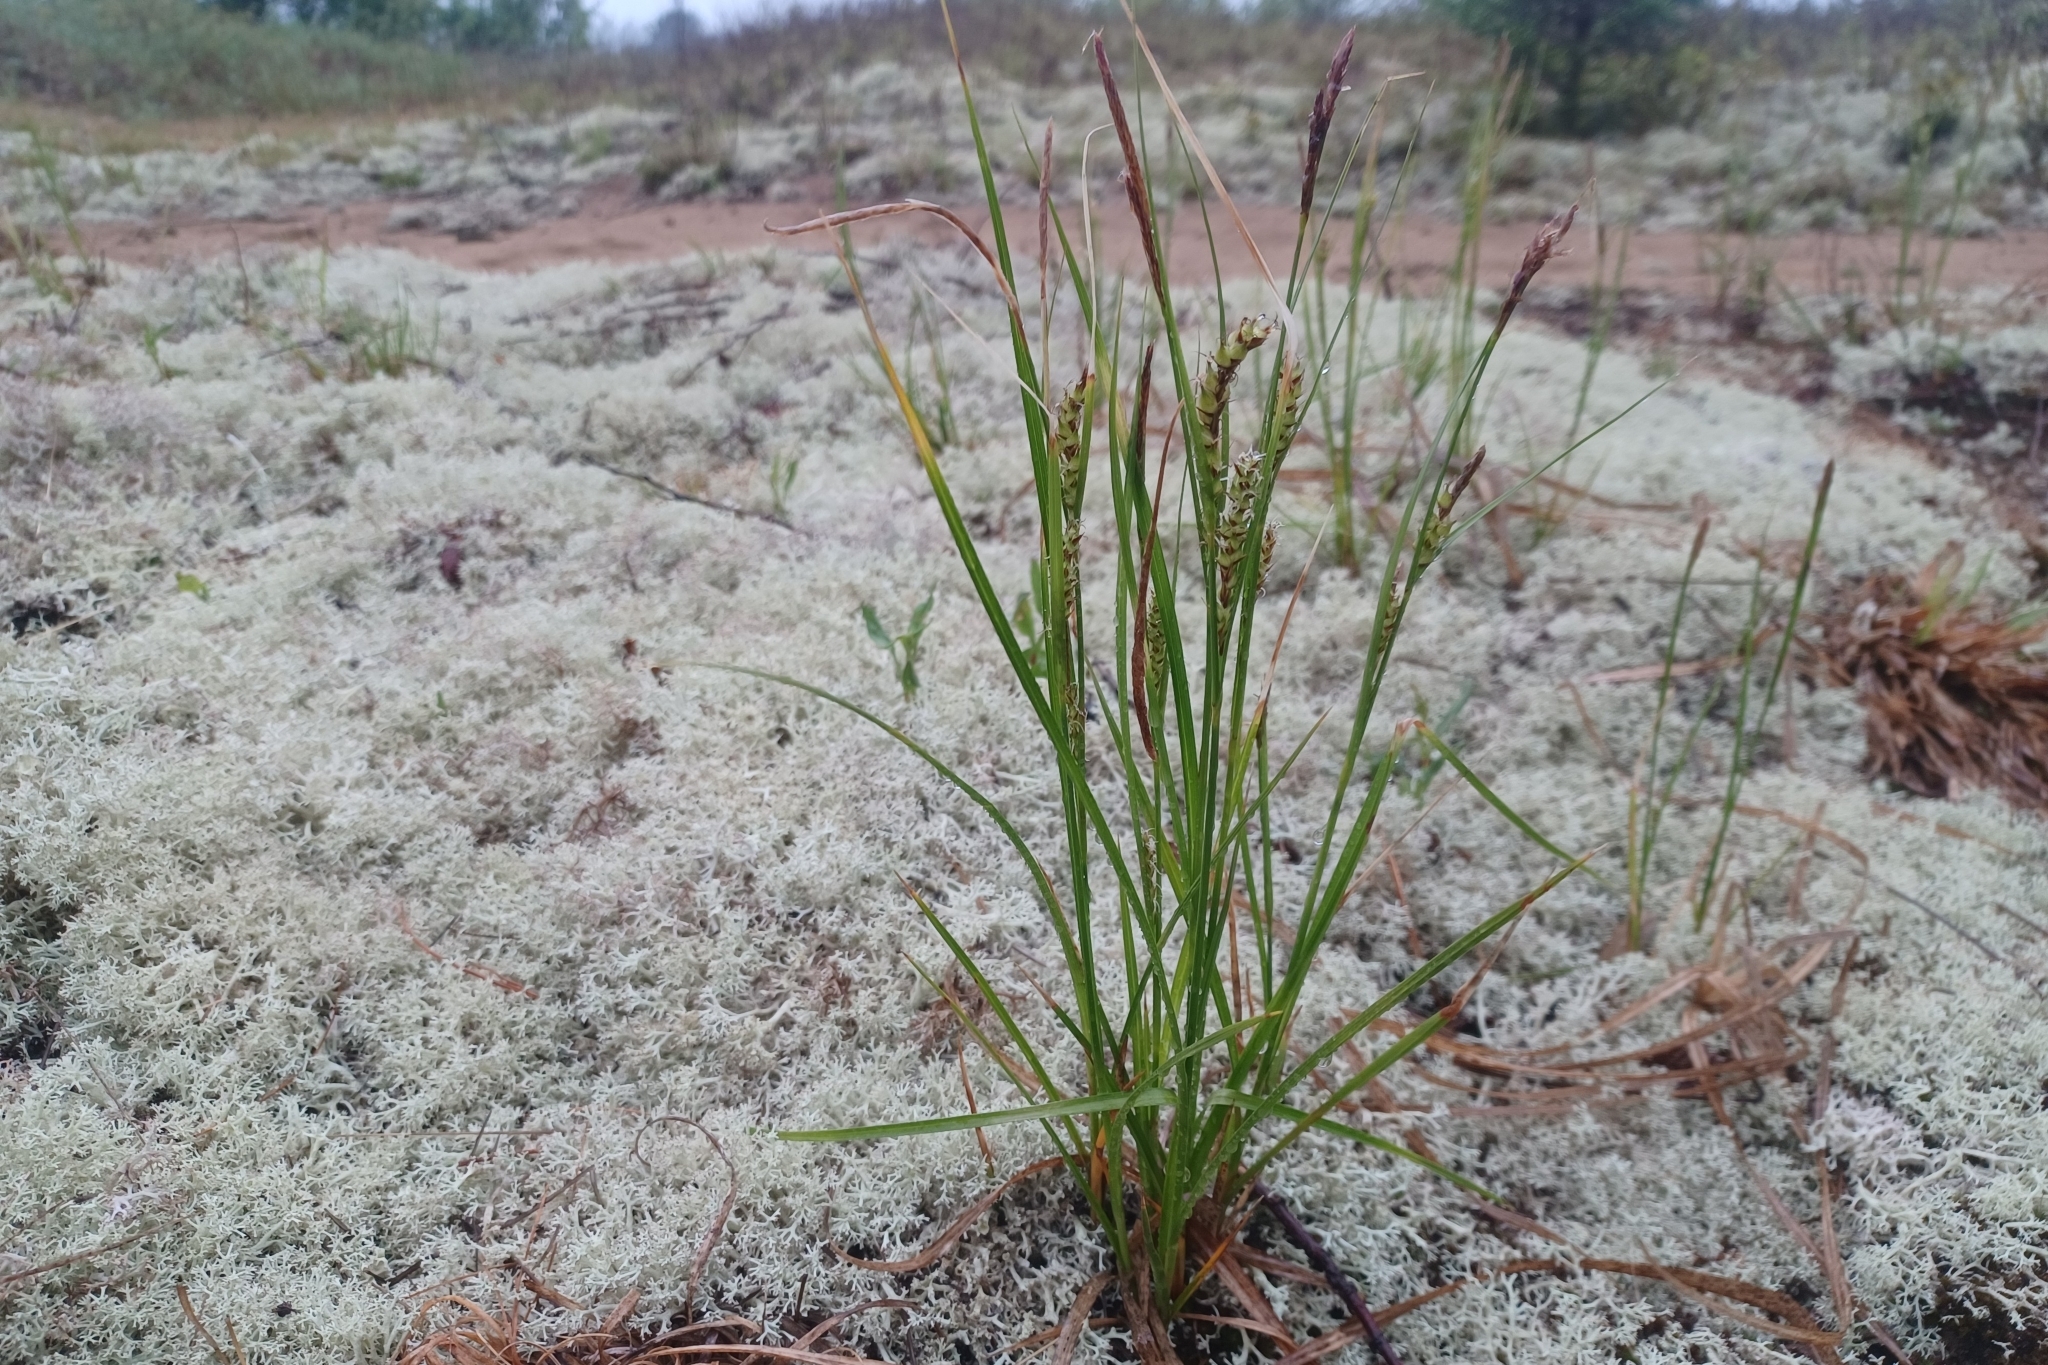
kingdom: Plantae
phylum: Tracheophyta
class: Liliopsida
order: Poales
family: Cyperaceae
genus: Carex
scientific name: Carex houghtoniana
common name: Houghton's sedge
